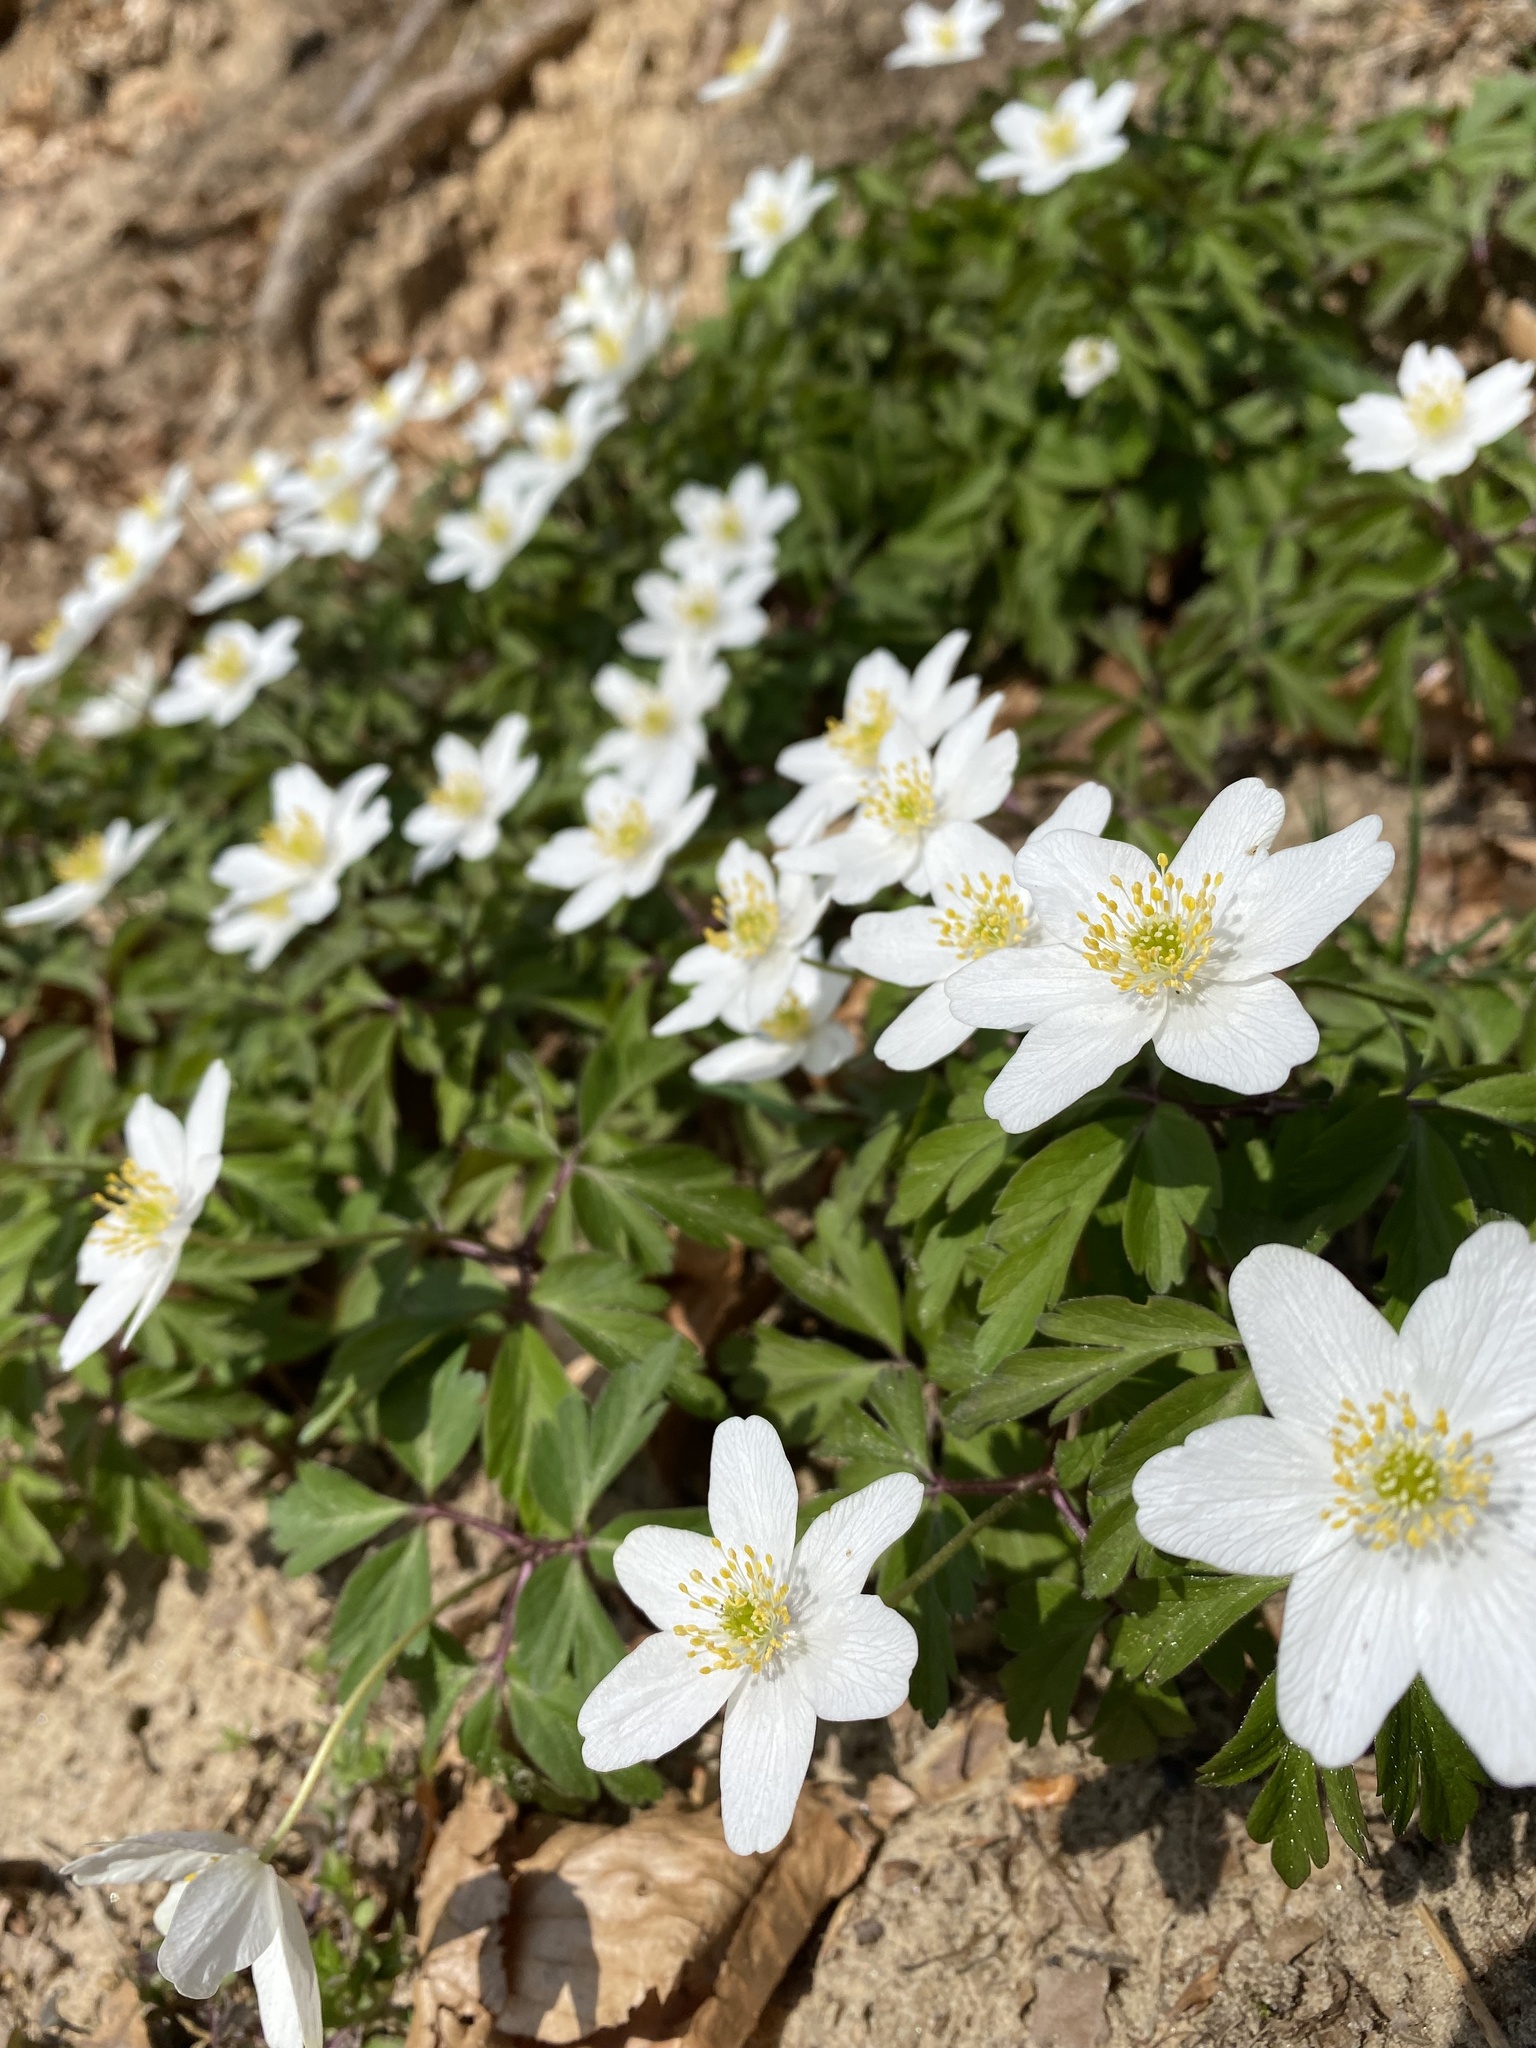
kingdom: Plantae
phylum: Tracheophyta
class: Magnoliopsida
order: Ranunculales
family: Ranunculaceae
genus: Anemone
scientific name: Anemone nemorosa
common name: Wood anemone
